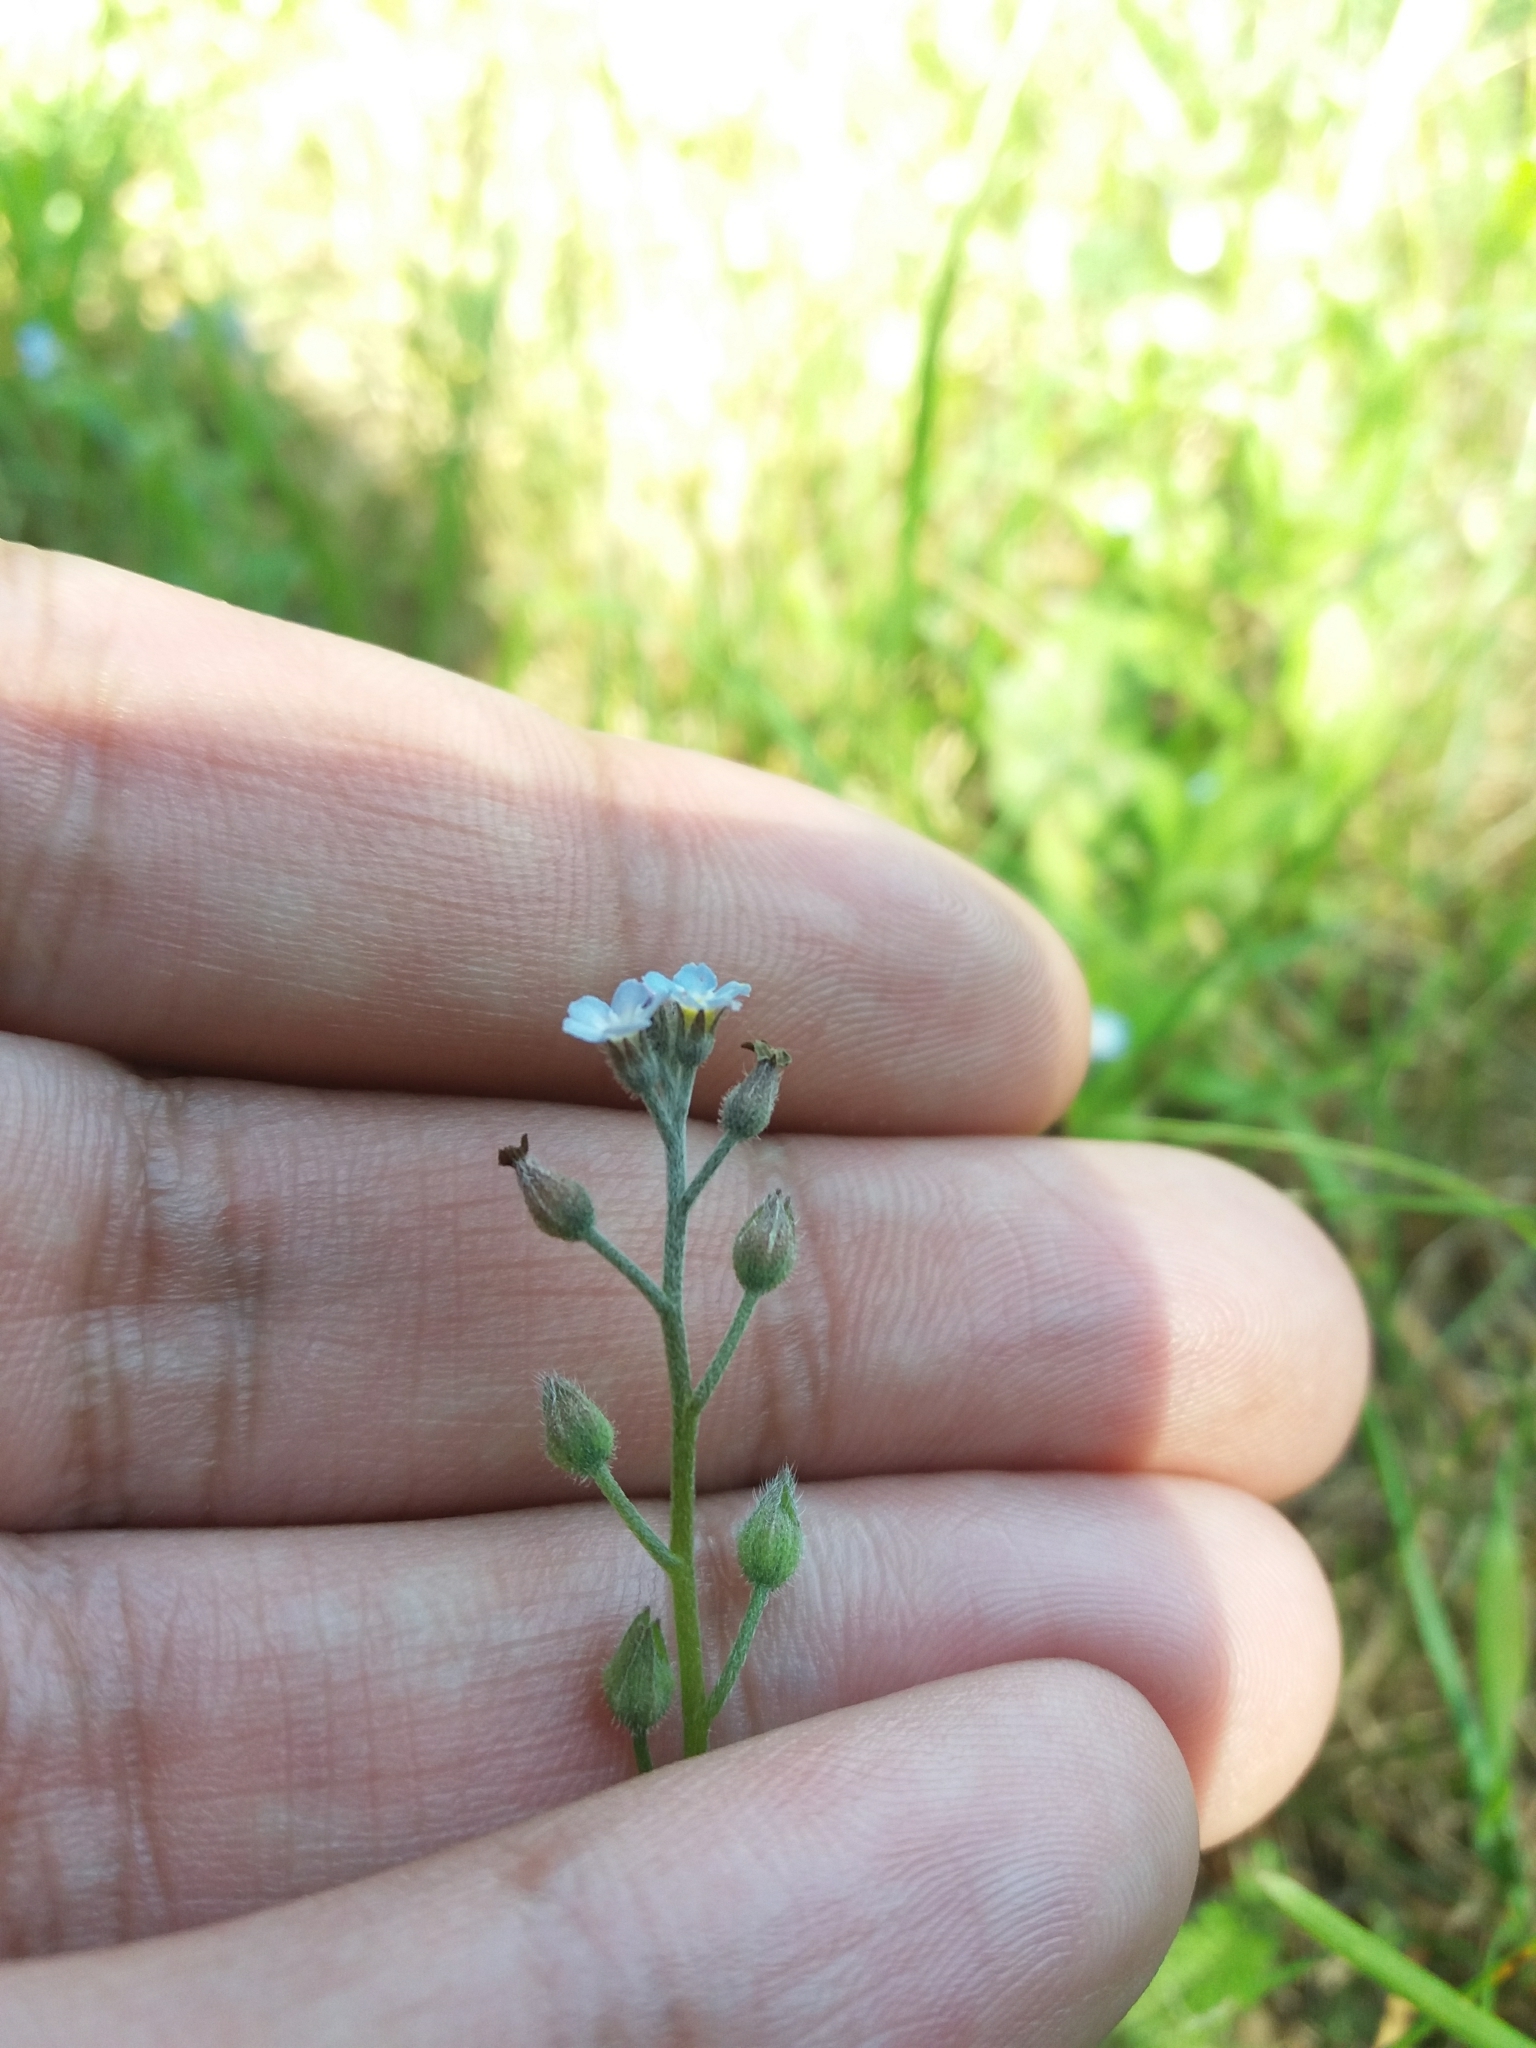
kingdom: Plantae
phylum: Tracheophyta
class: Magnoliopsida
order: Boraginales
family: Boraginaceae
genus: Myosotis
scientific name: Myosotis arvensis
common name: Field forget-me-not
